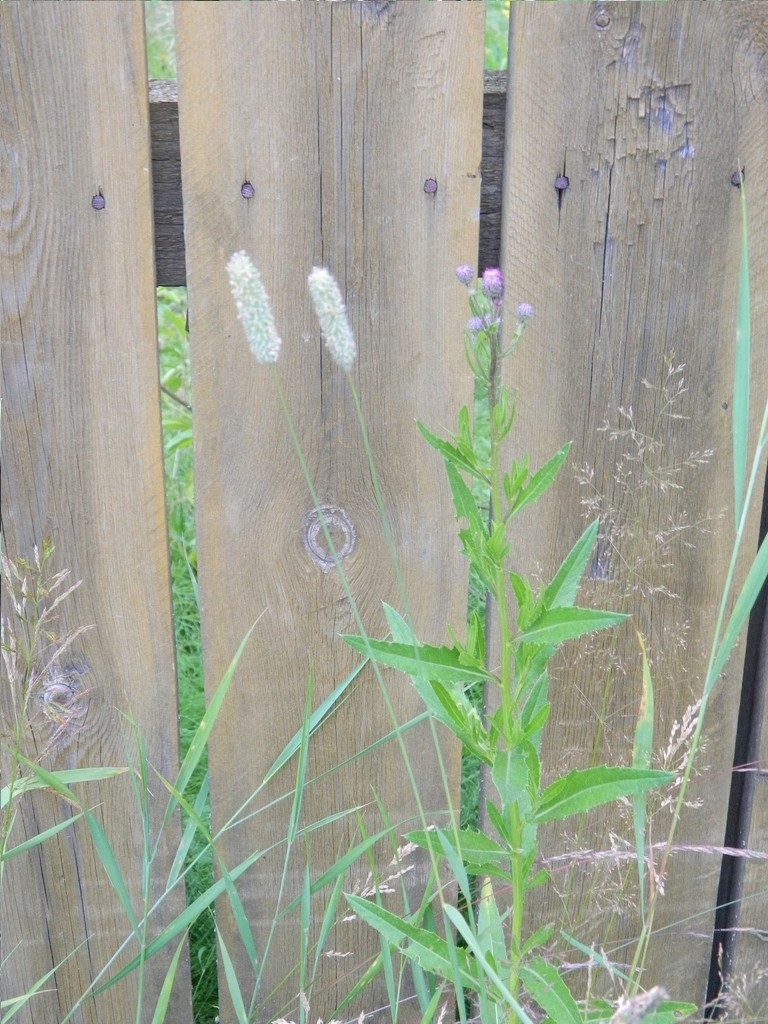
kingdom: Plantae
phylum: Tracheophyta
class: Liliopsida
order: Poales
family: Poaceae
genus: Phleum
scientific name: Phleum pratense
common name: Timothy grass
